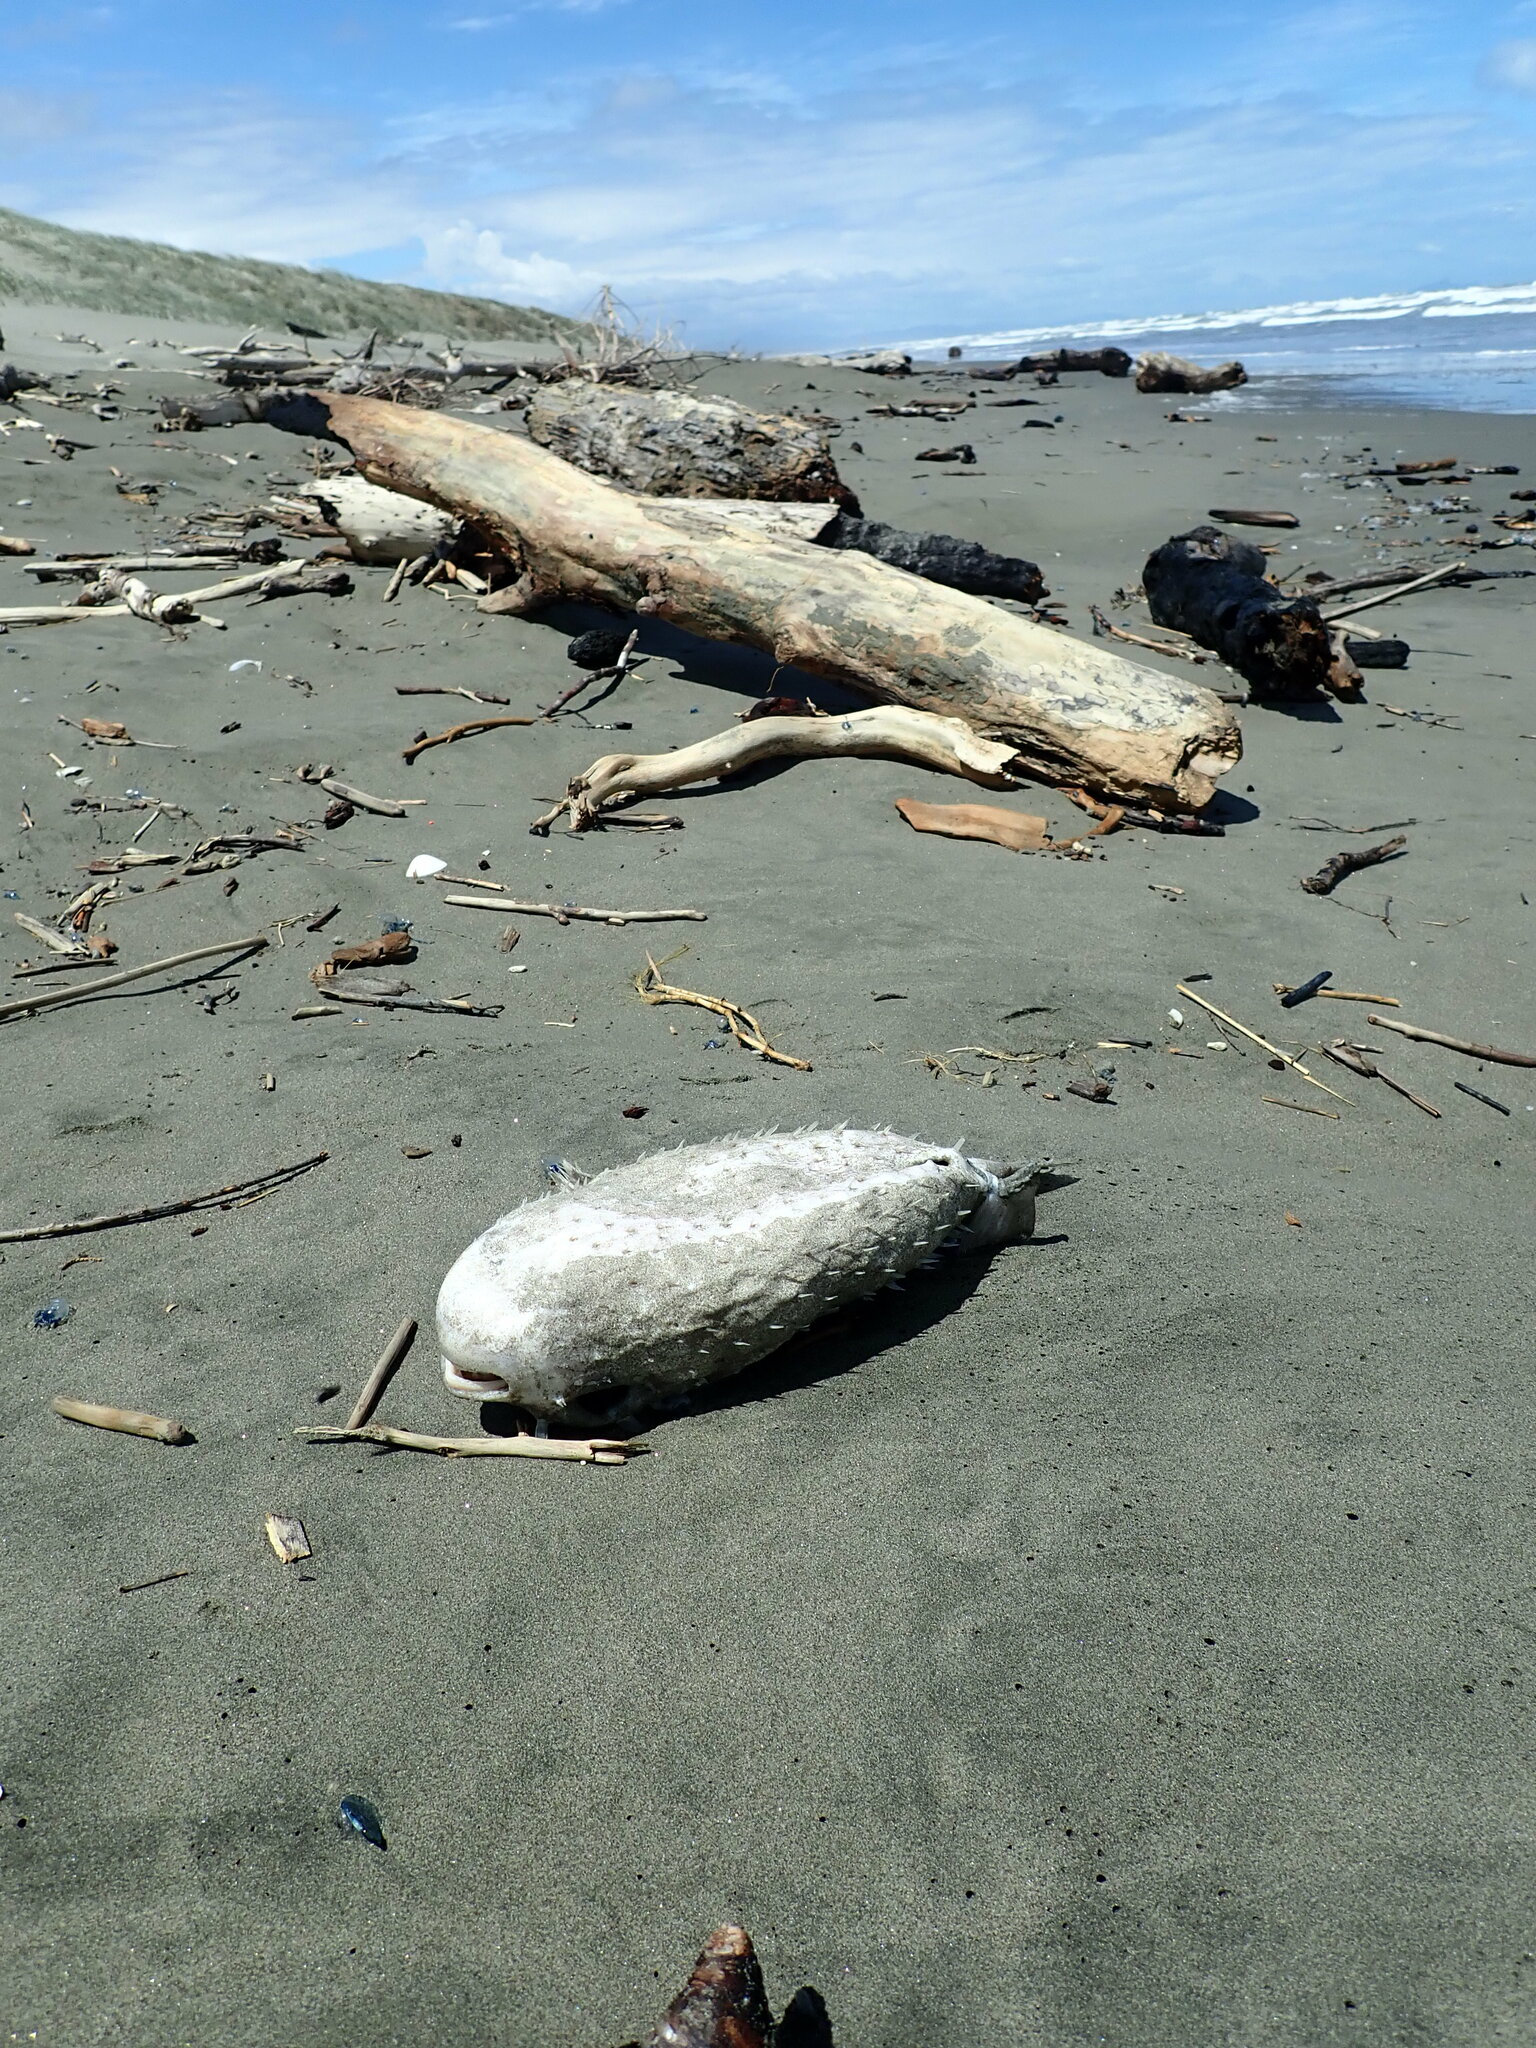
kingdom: Animalia
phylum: Chordata
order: Tetraodontiformes
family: Diodontidae
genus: Allomycterus
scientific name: Allomycterus pilatus
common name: No common name
